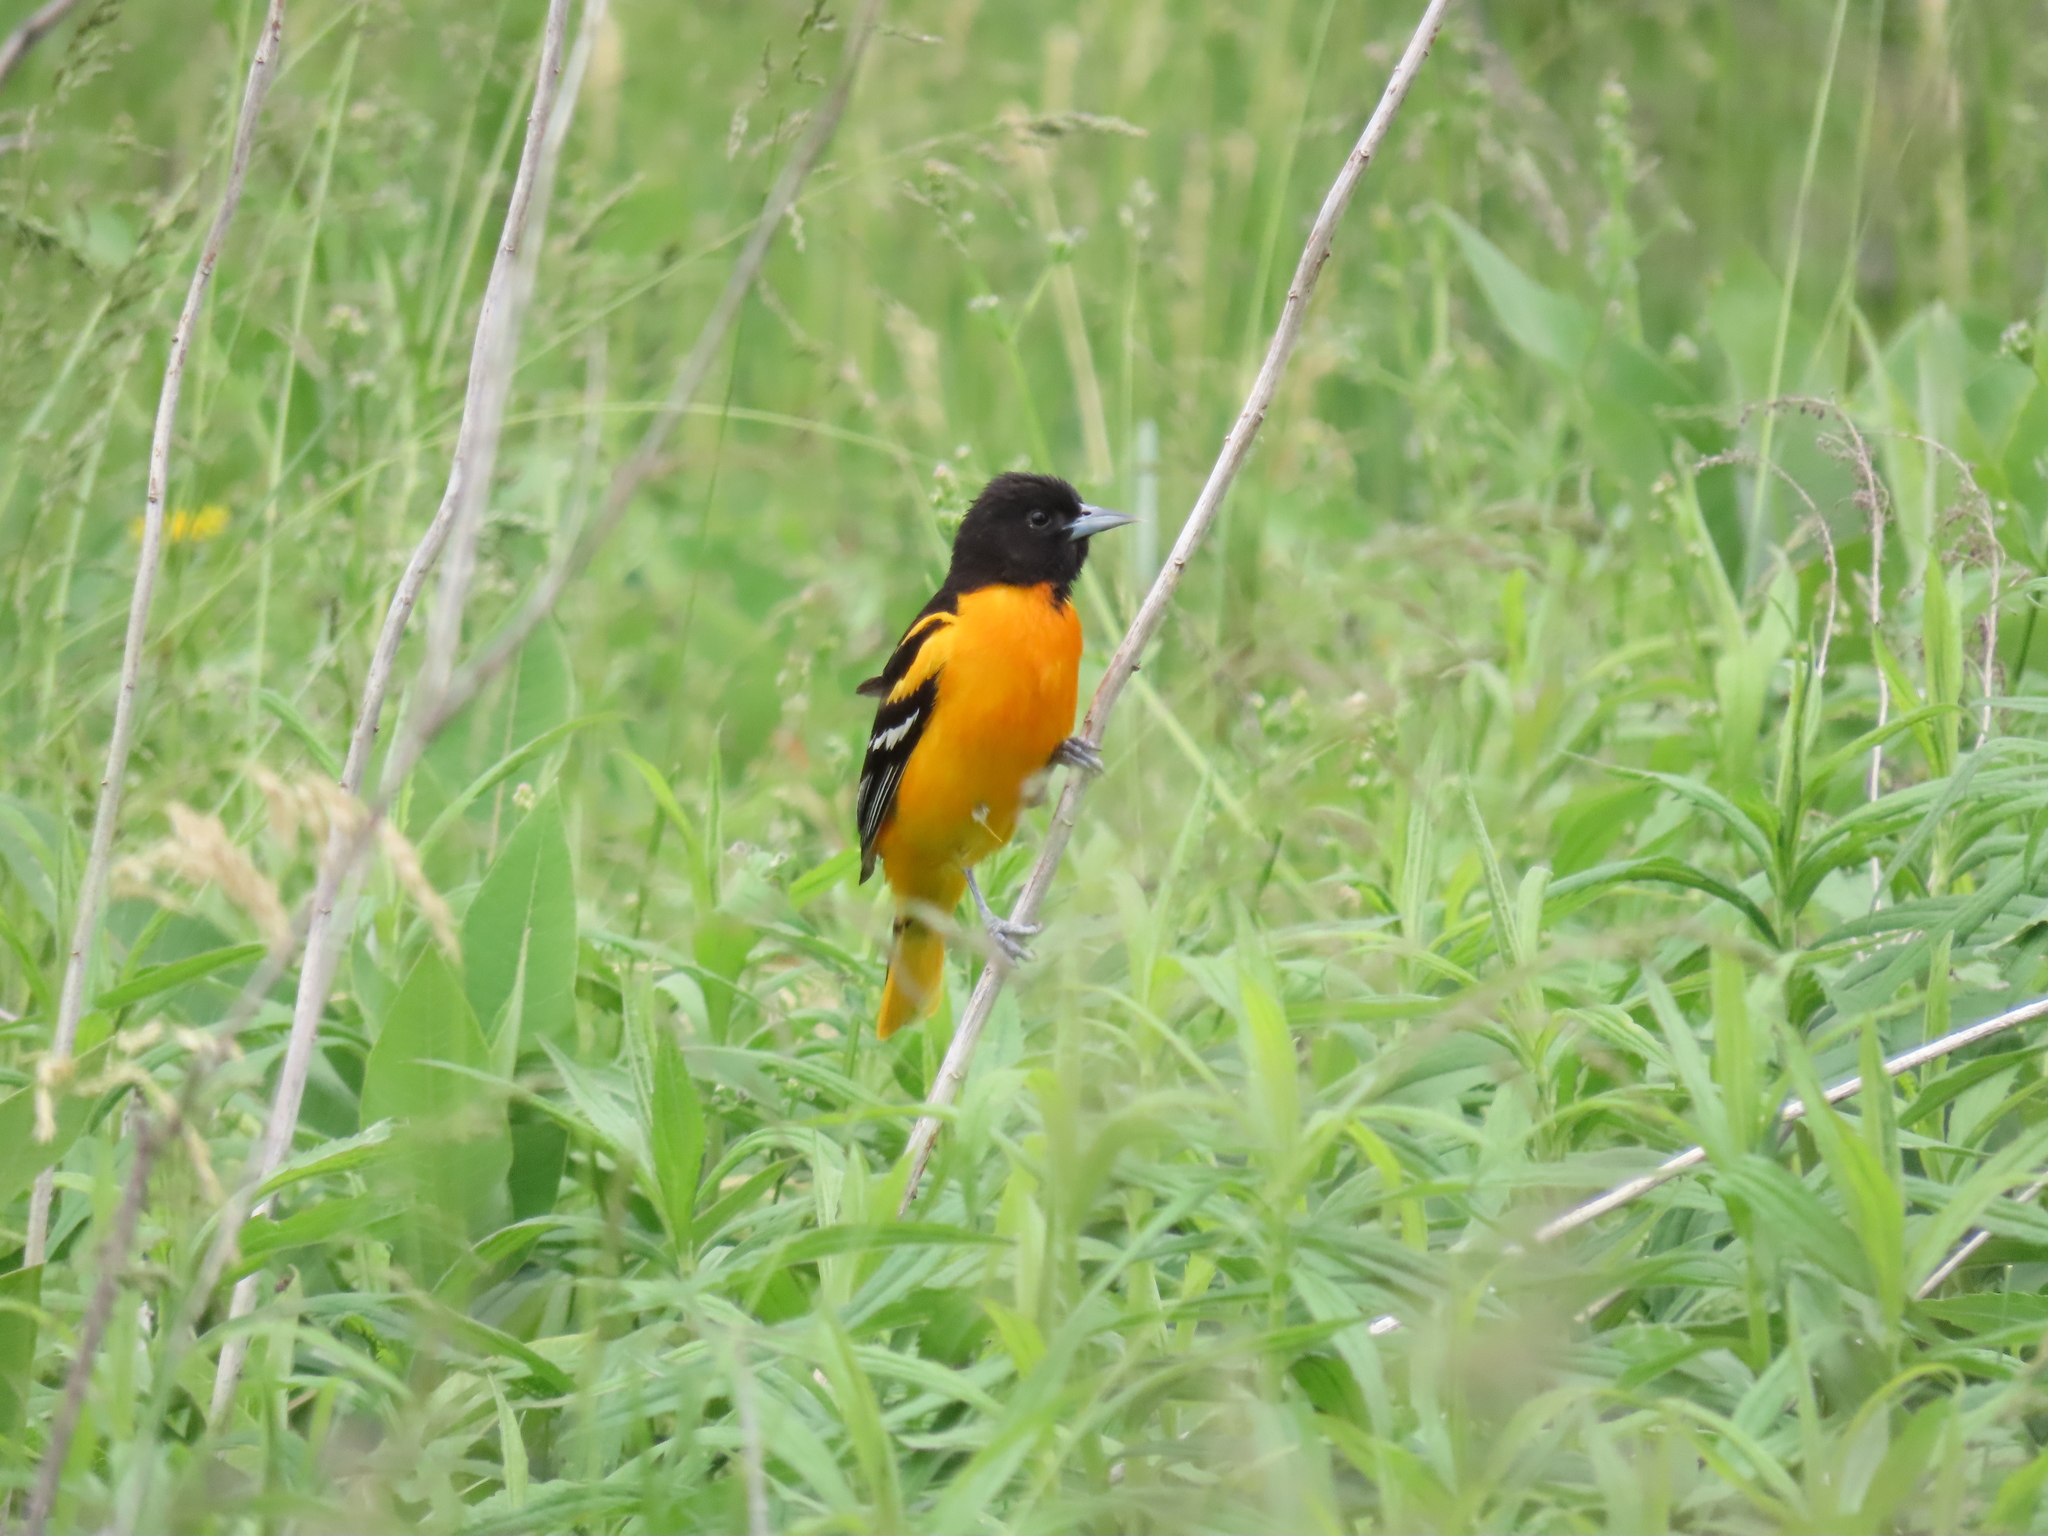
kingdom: Animalia
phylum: Chordata
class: Aves
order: Passeriformes
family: Icteridae
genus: Icterus
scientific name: Icterus galbula
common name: Baltimore oriole
